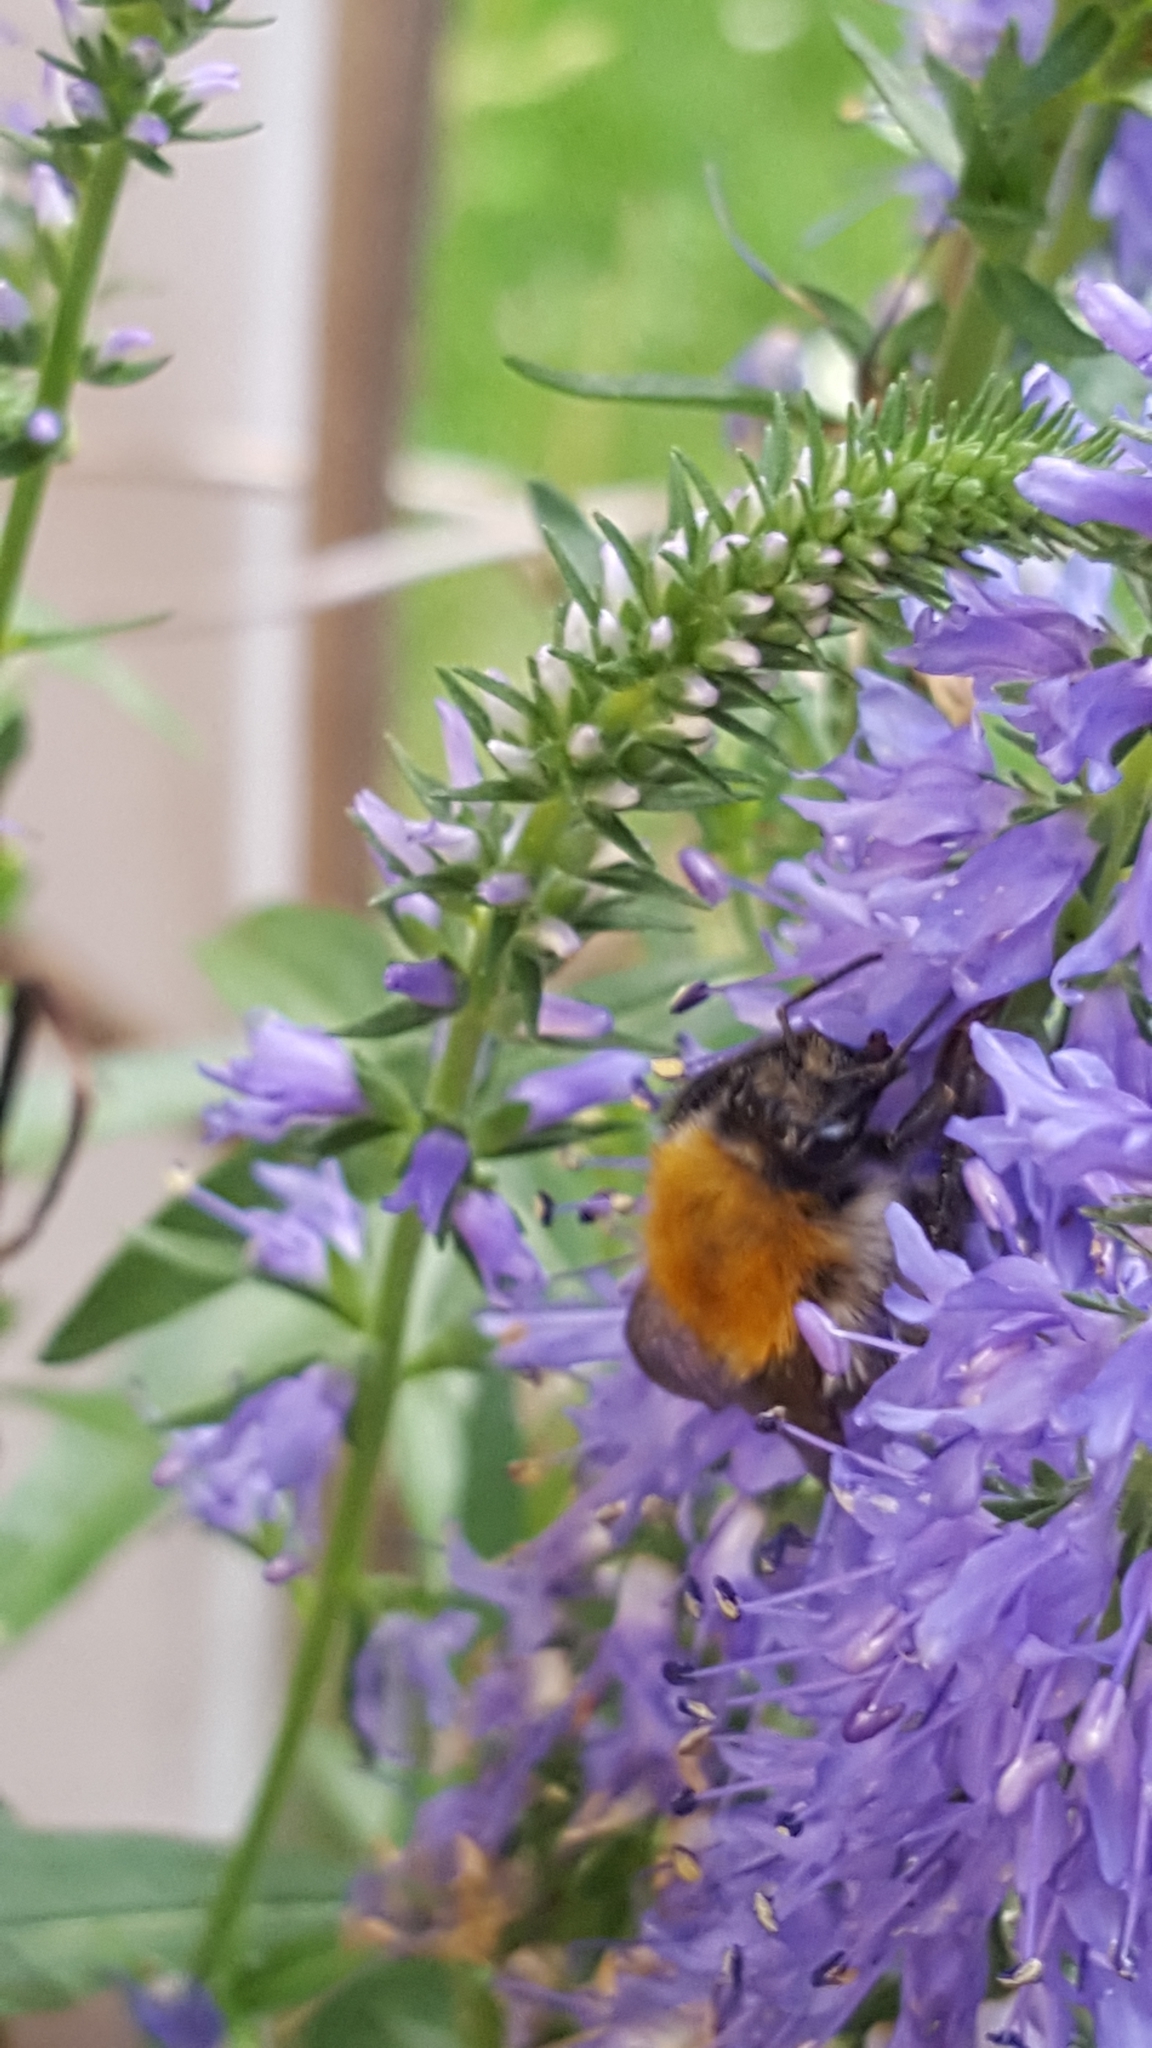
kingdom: Animalia
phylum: Arthropoda
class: Insecta
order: Hymenoptera
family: Apidae
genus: Bombus
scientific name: Bombus pascuorum
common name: Common carder bee
